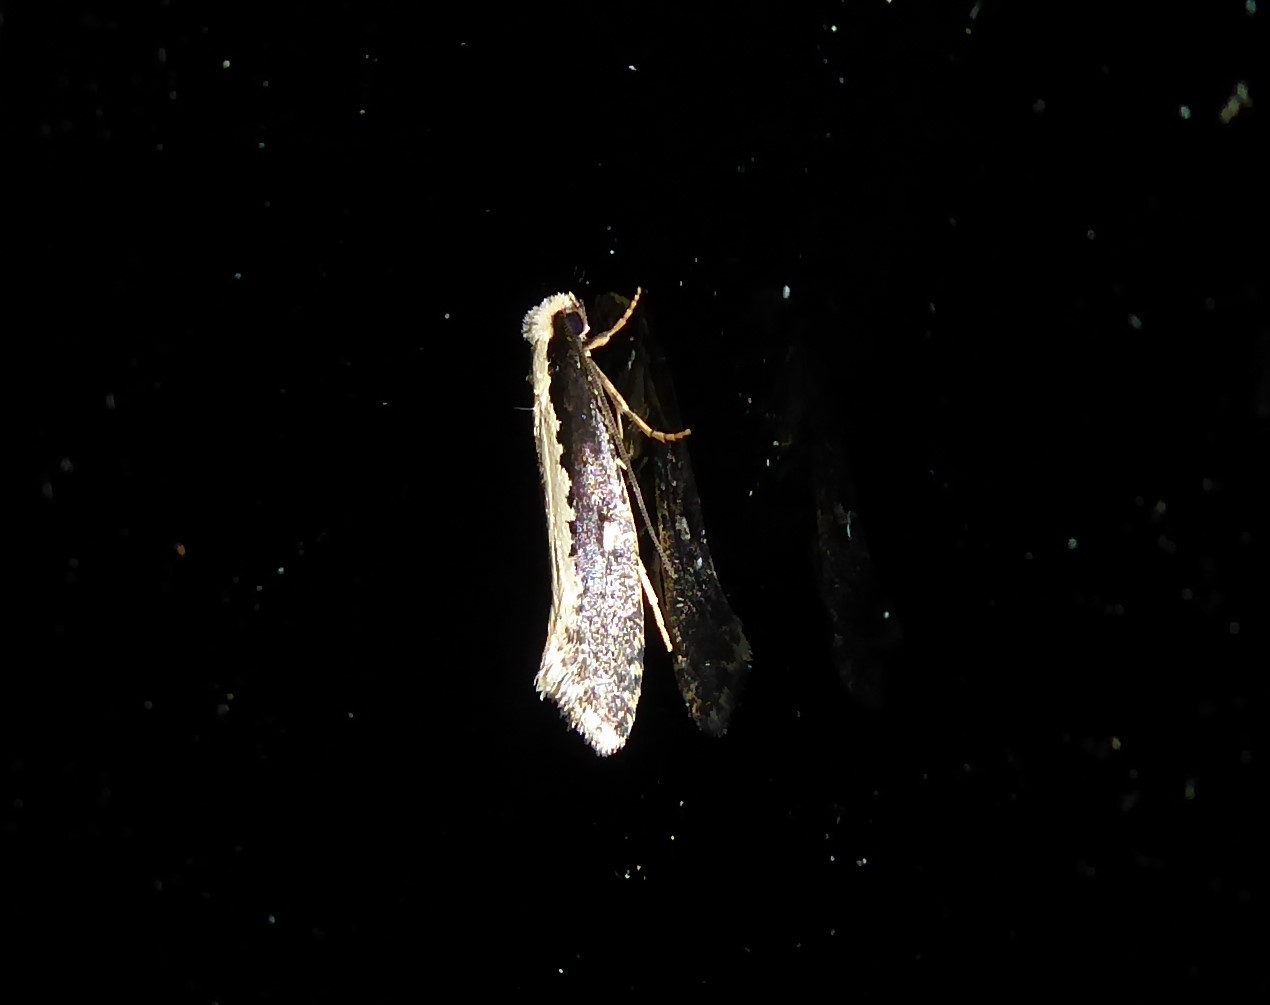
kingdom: Animalia
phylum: Arthropoda
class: Insecta
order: Lepidoptera
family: Tineidae
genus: Monopis
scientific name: Monopis ethelella
